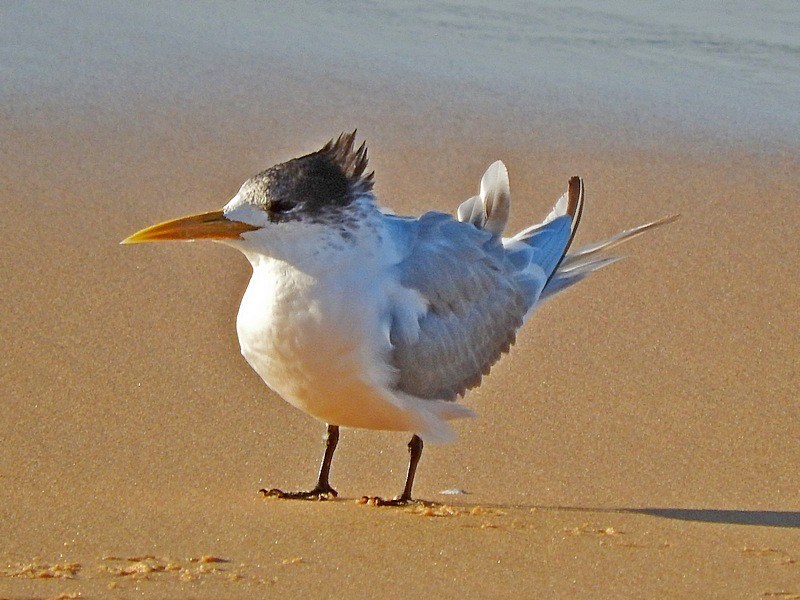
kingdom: Animalia
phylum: Chordata
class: Aves
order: Charadriiformes
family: Laridae
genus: Thalasseus
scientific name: Thalasseus bergii
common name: Greater crested tern
